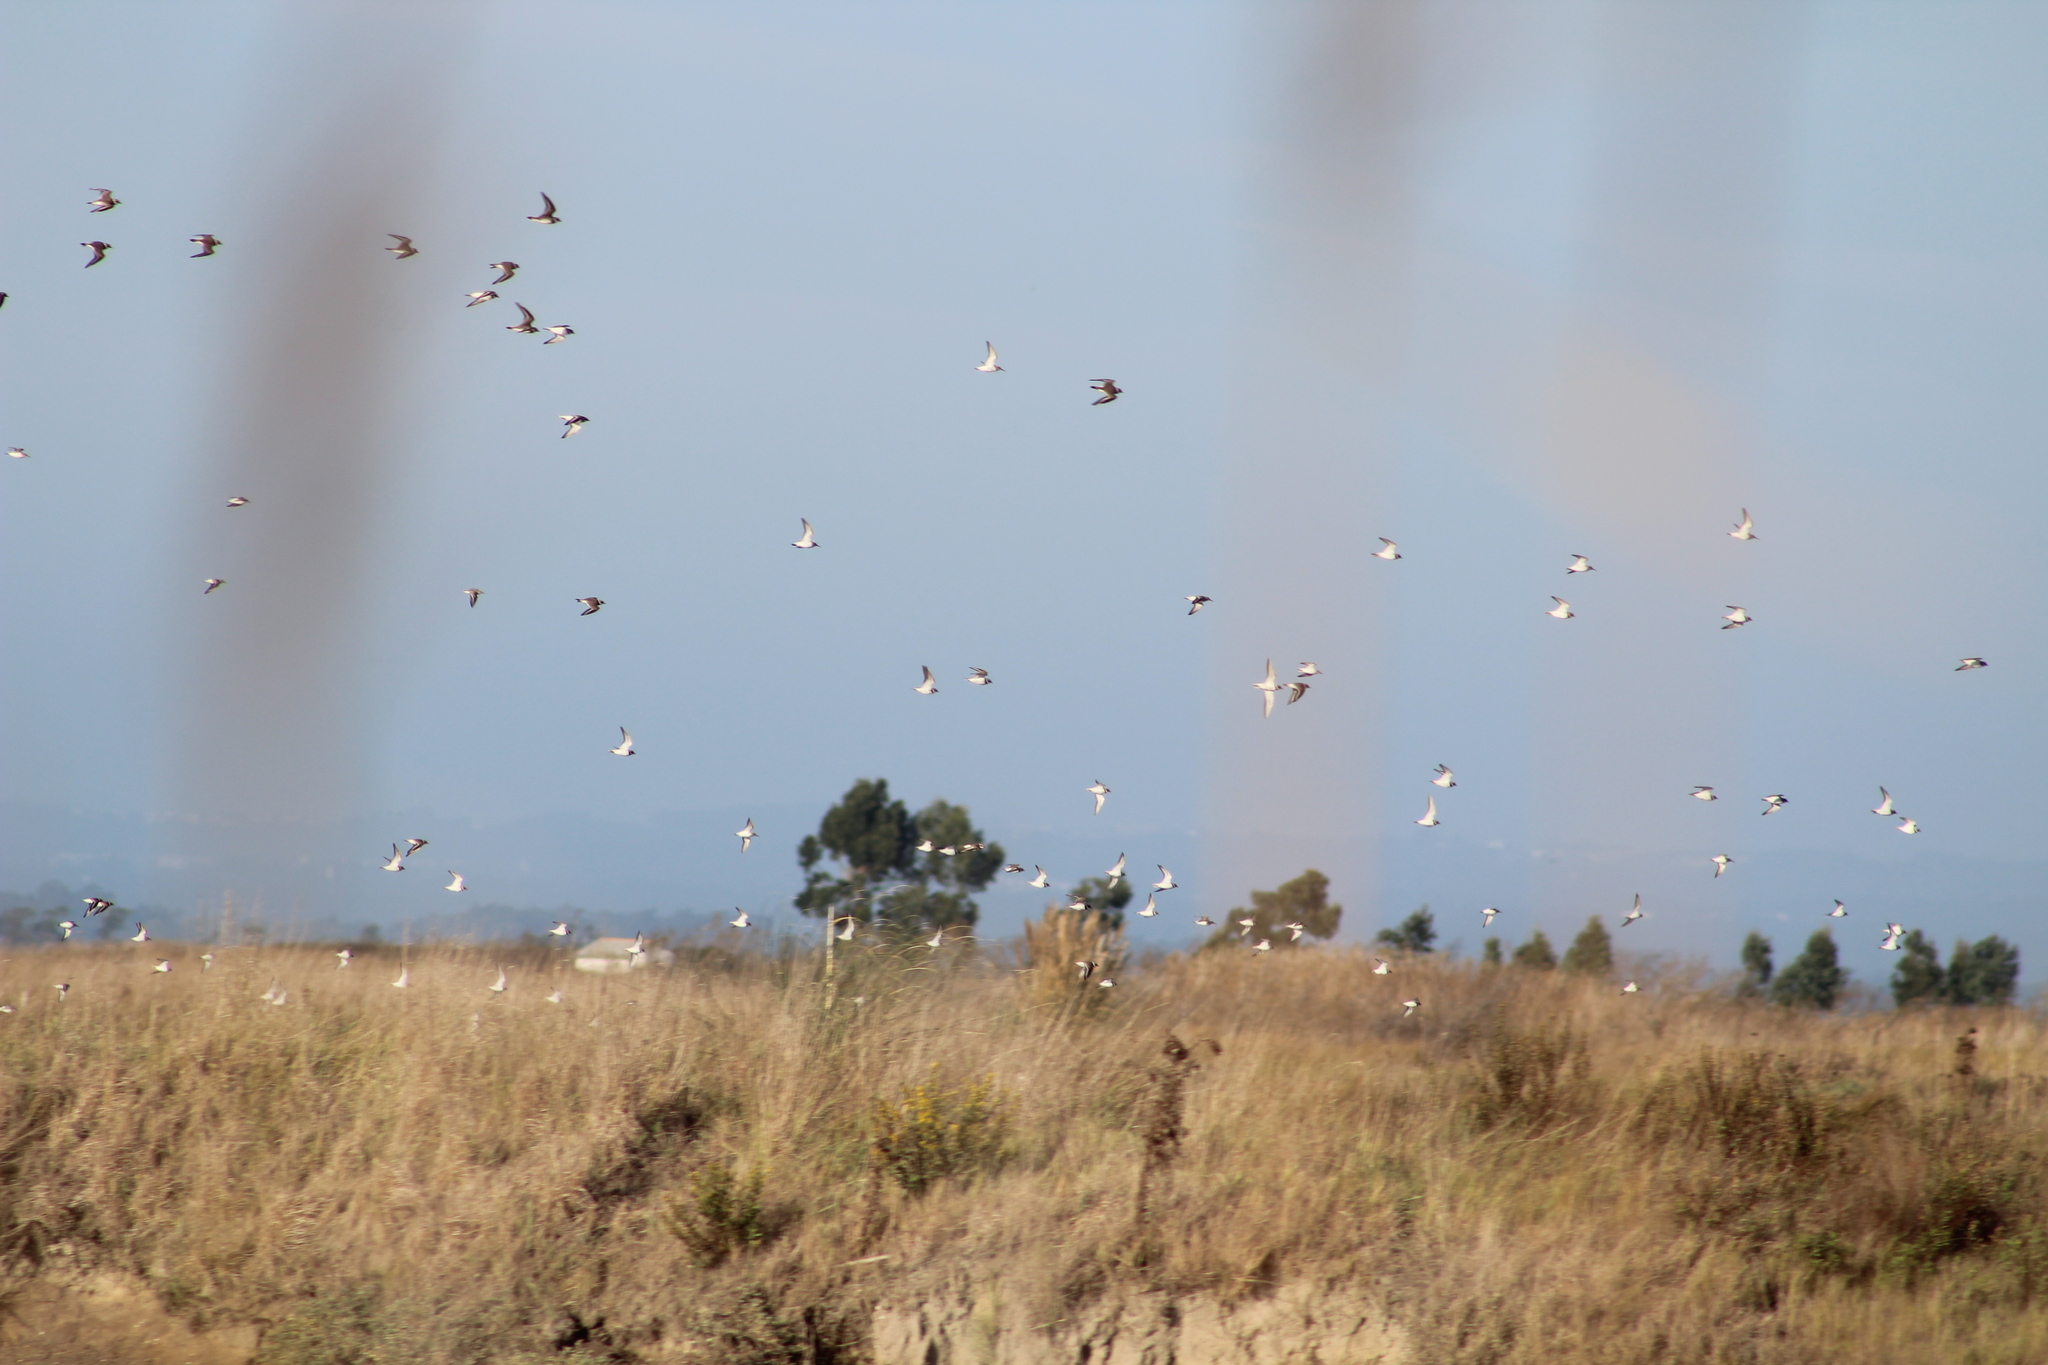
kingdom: Animalia
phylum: Chordata
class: Aves
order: Charadriiformes
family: Charadriidae
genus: Charadrius
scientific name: Charadrius hiaticula
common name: Common ringed plover
